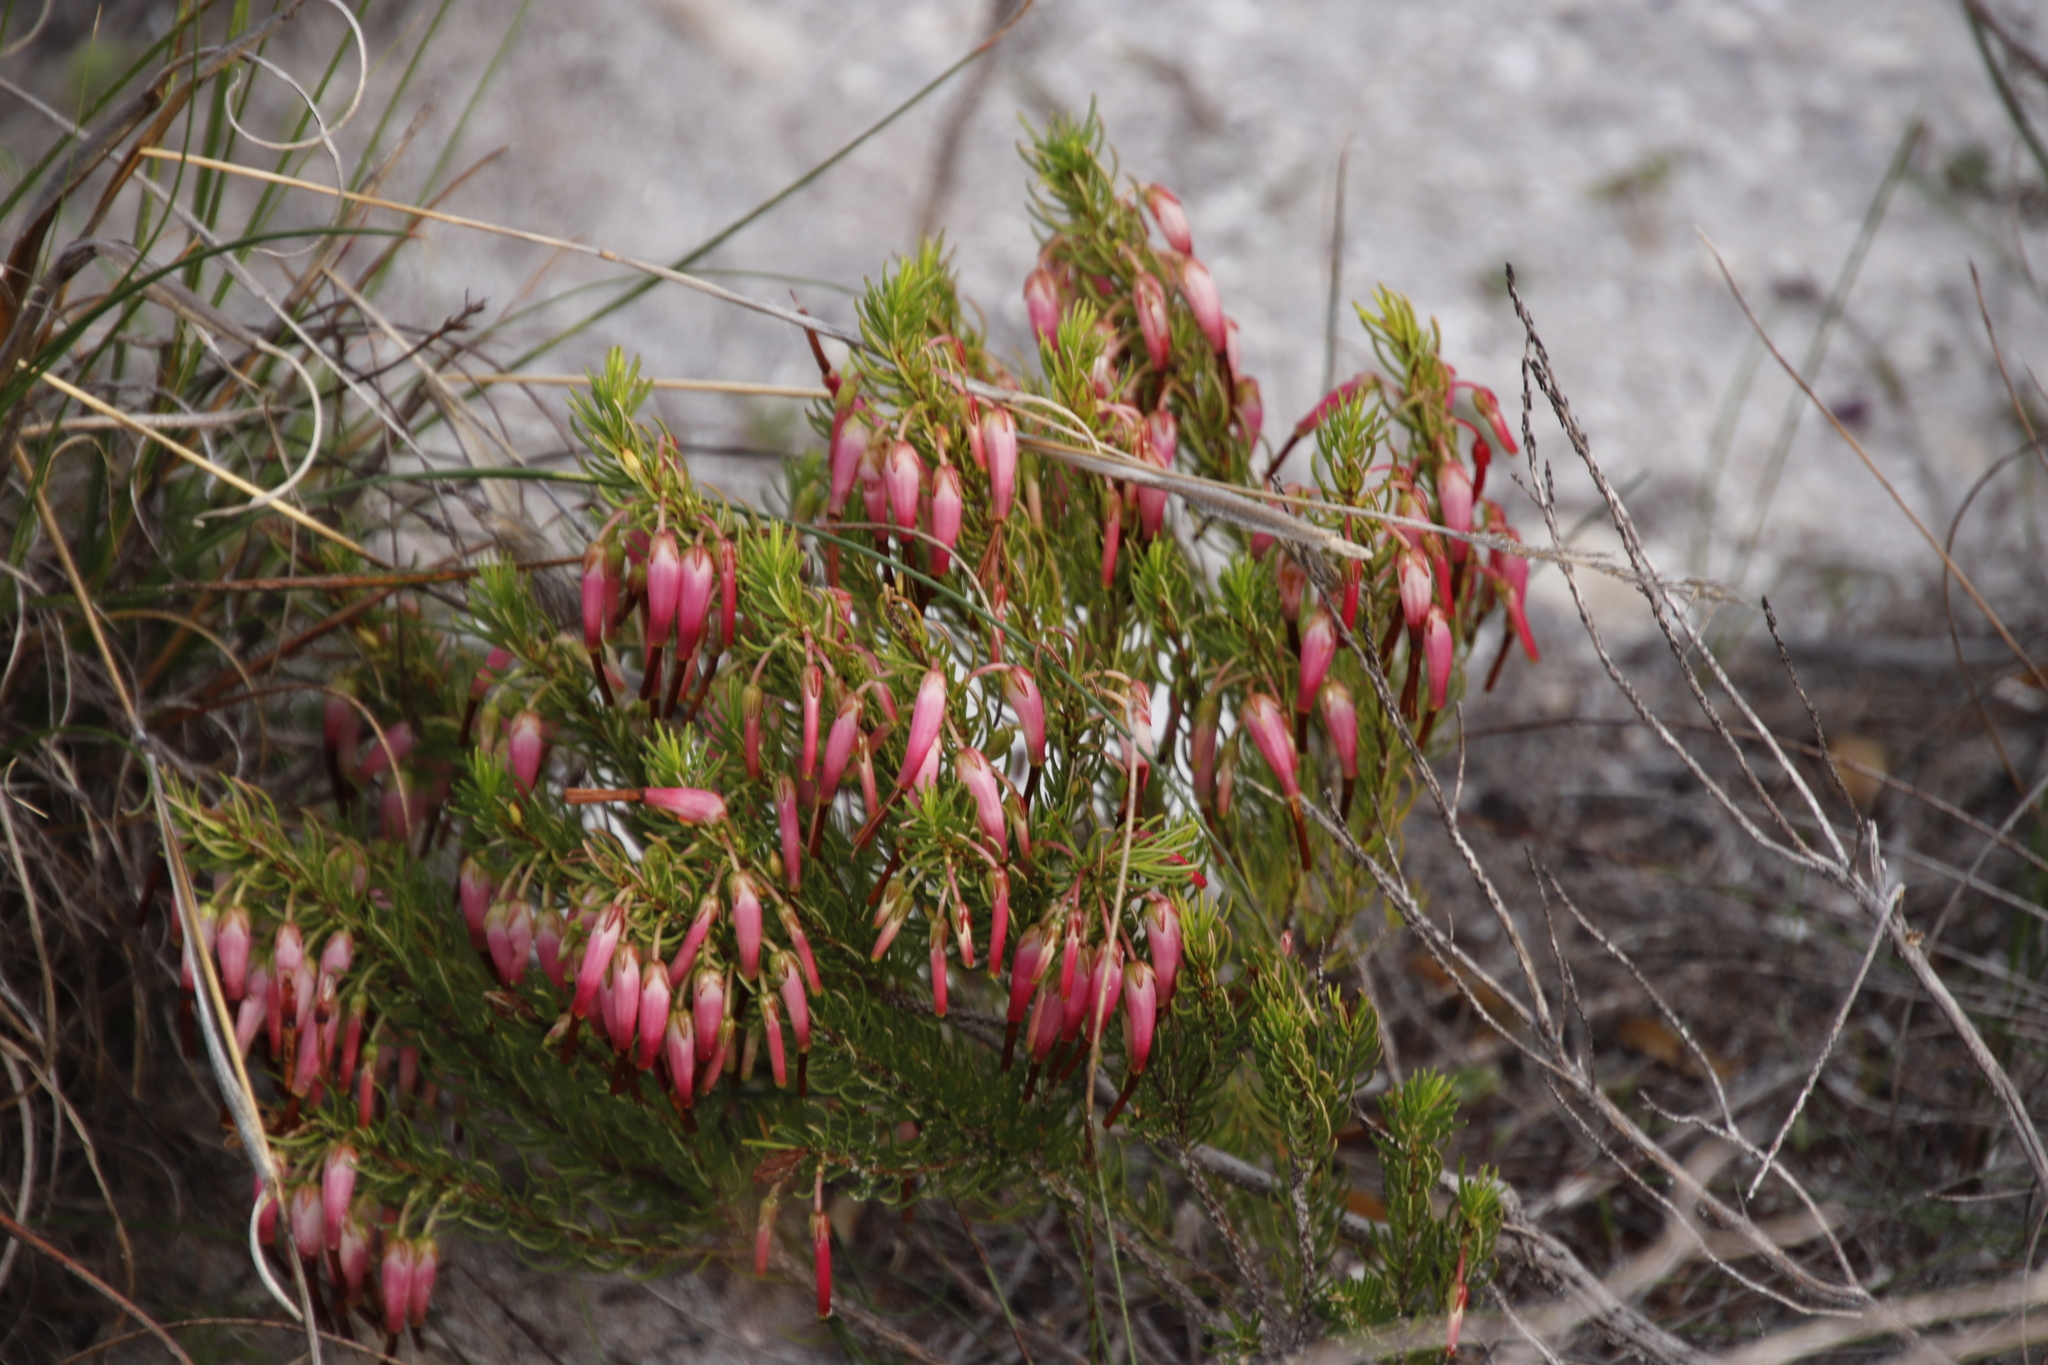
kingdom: Plantae
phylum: Tracheophyta
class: Magnoliopsida
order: Ericales
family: Ericaceae
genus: Erica
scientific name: Erica plukenetii
